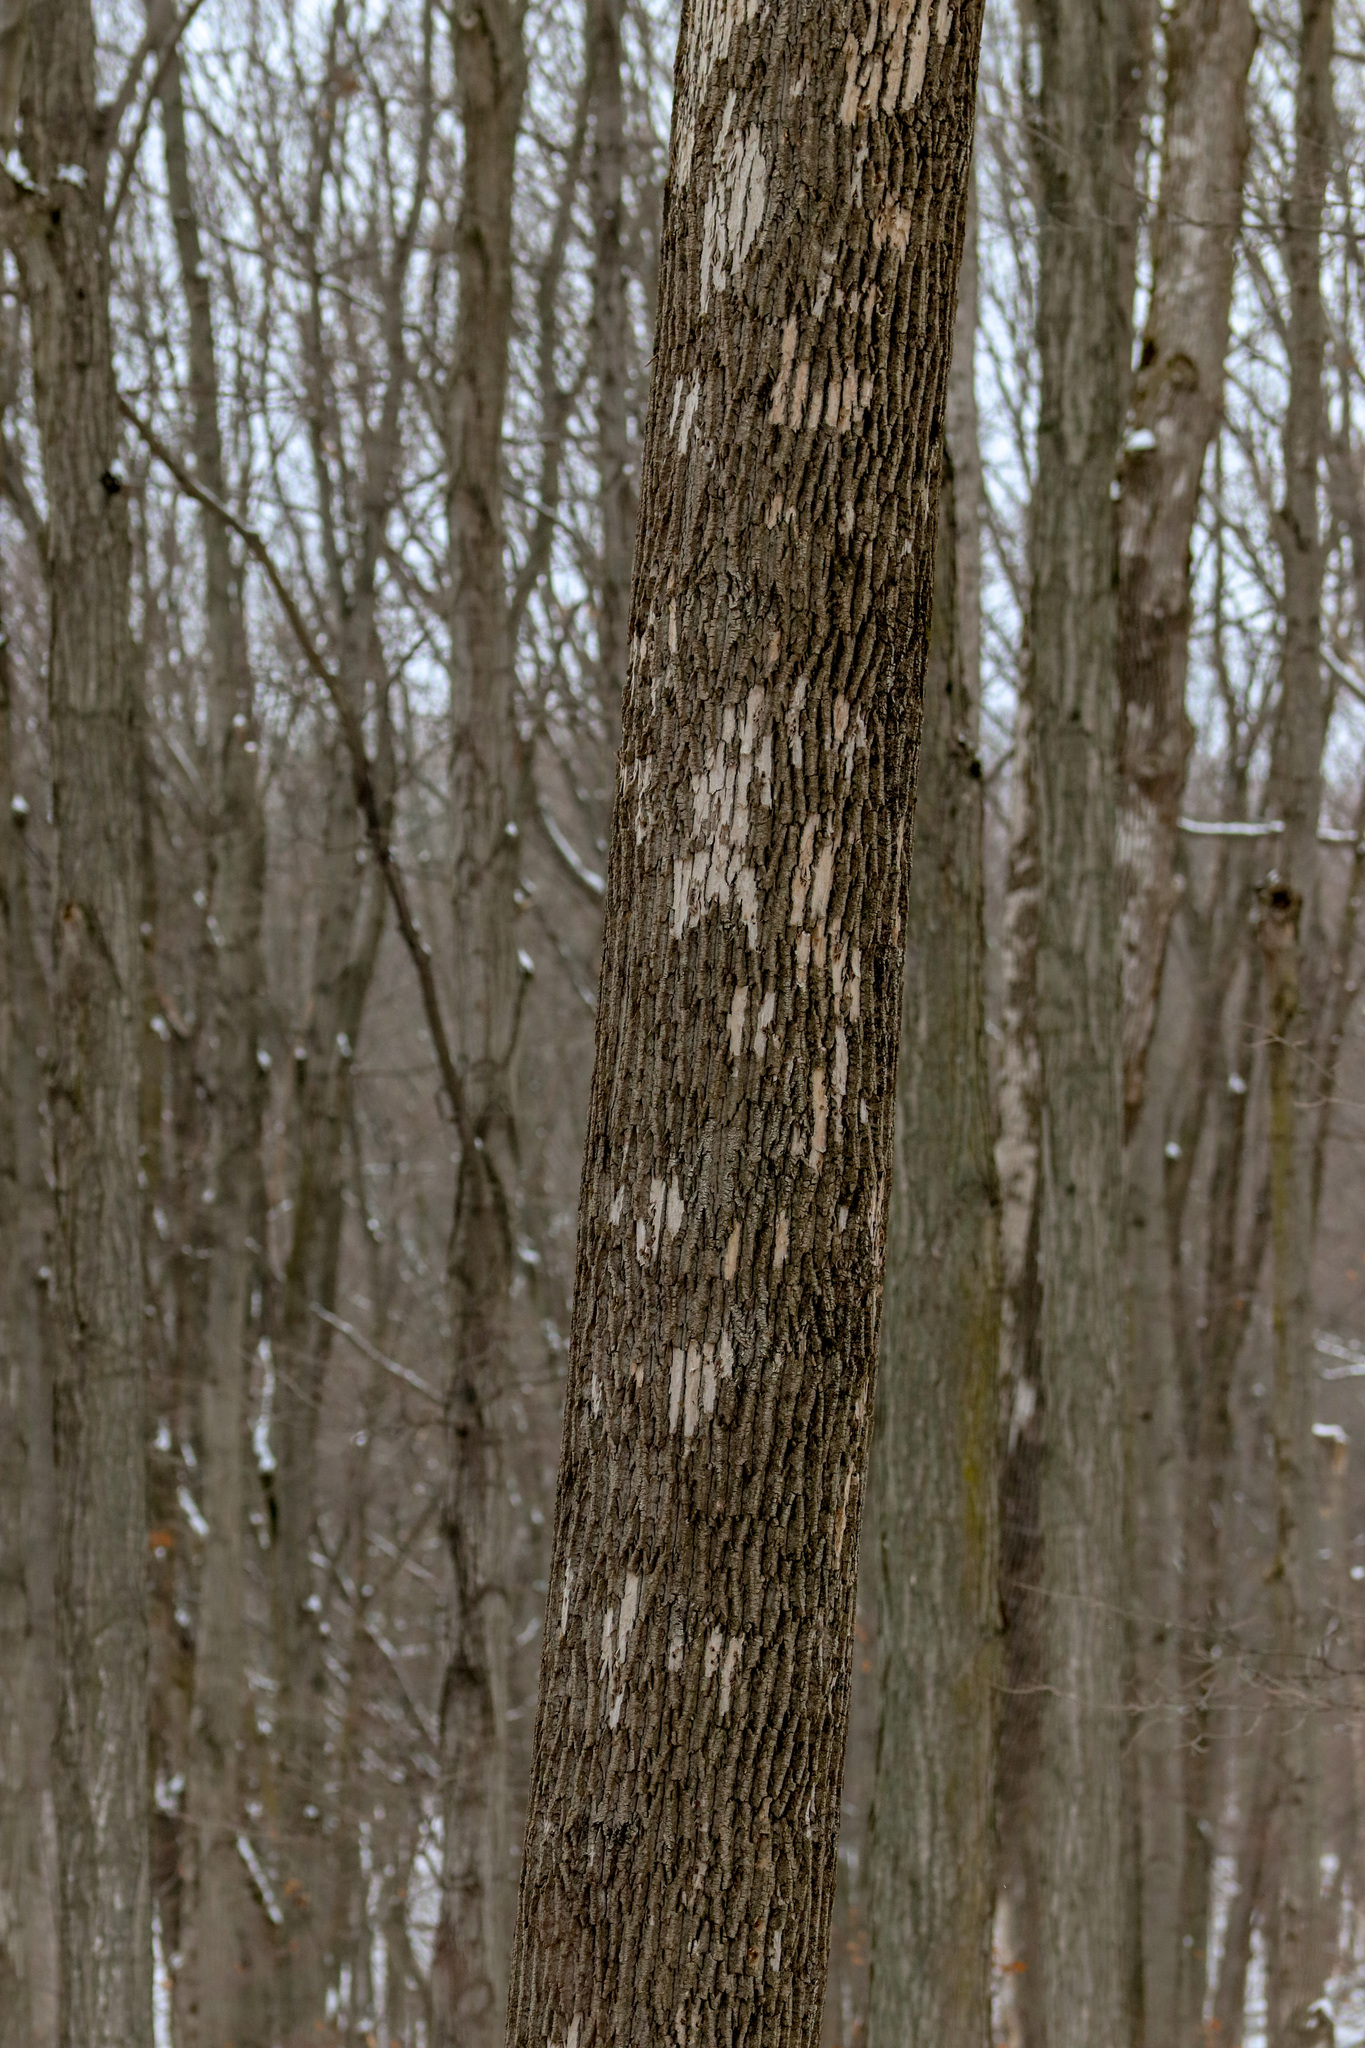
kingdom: Animalia
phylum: Arthropoda
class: Insecta
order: Coleoptera
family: Buprestidae
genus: Agrilus
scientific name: Agrilus planipennis
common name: Emerald ash borer
